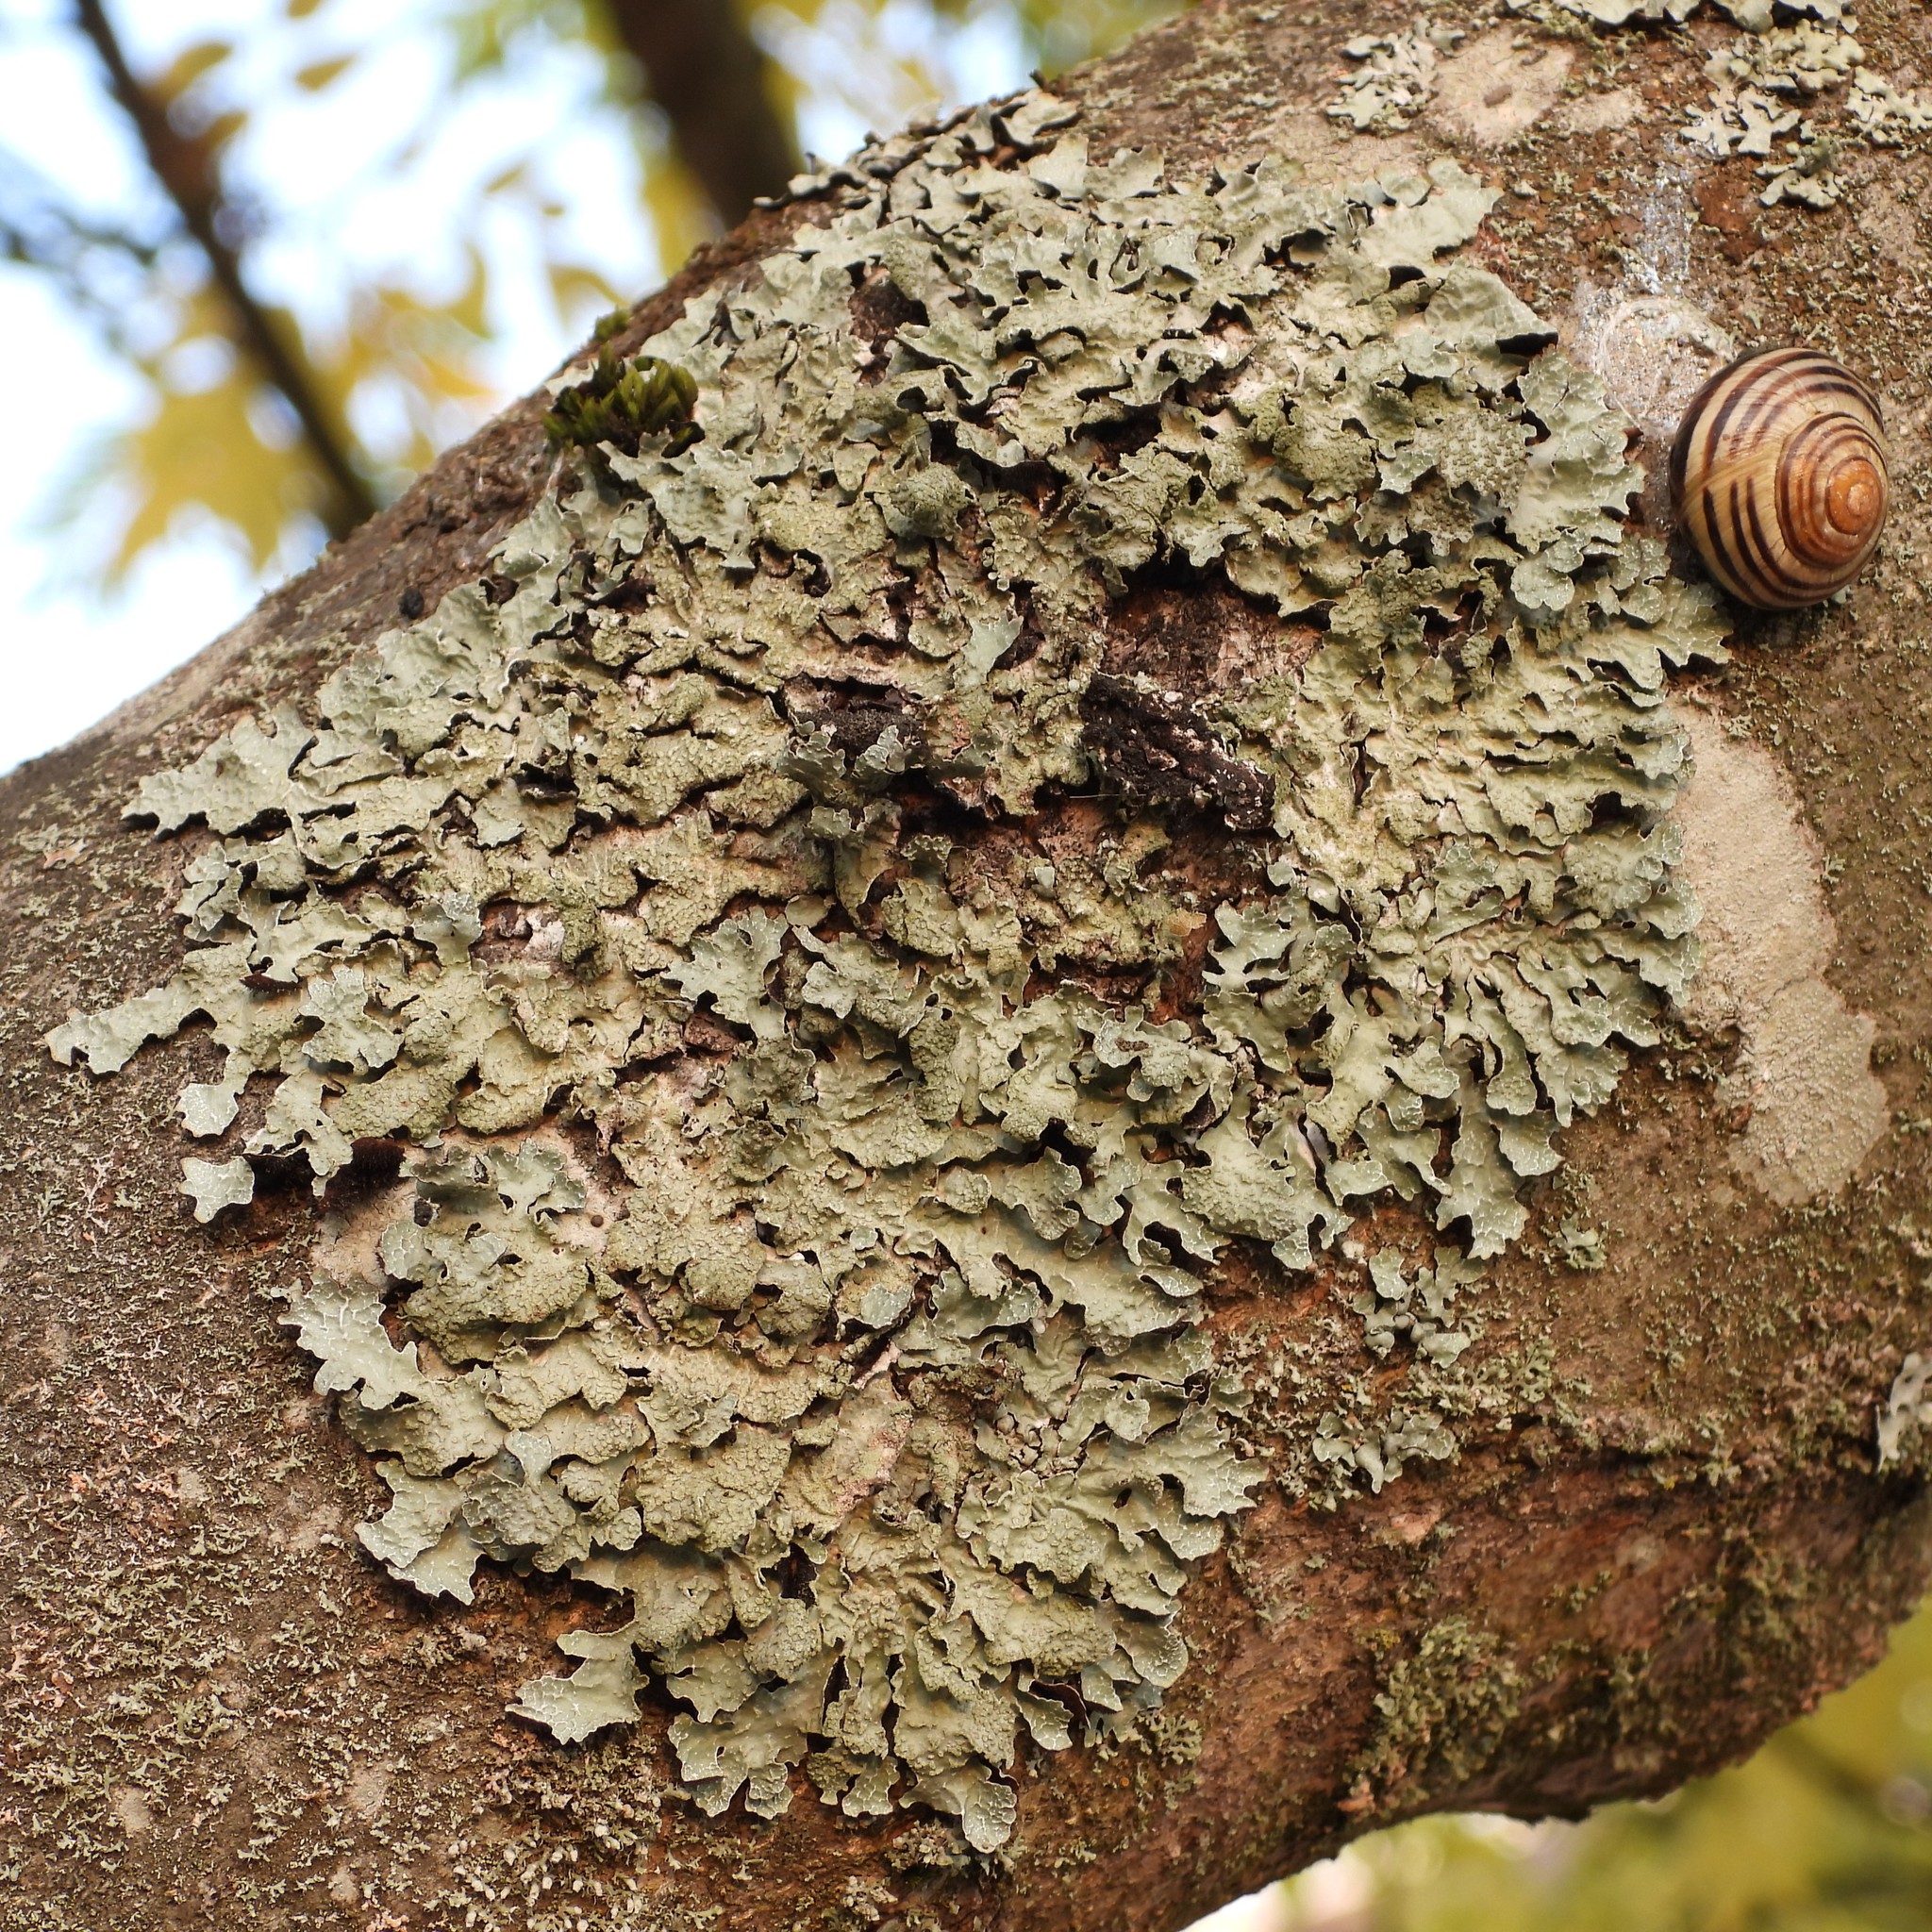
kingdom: Fungi
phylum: Ascomycota
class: Lecanoromycetes
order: Lecanorales
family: Parmeliaceae
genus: Parmelia
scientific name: Parmelia sulcata
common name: Netted shield lichen
